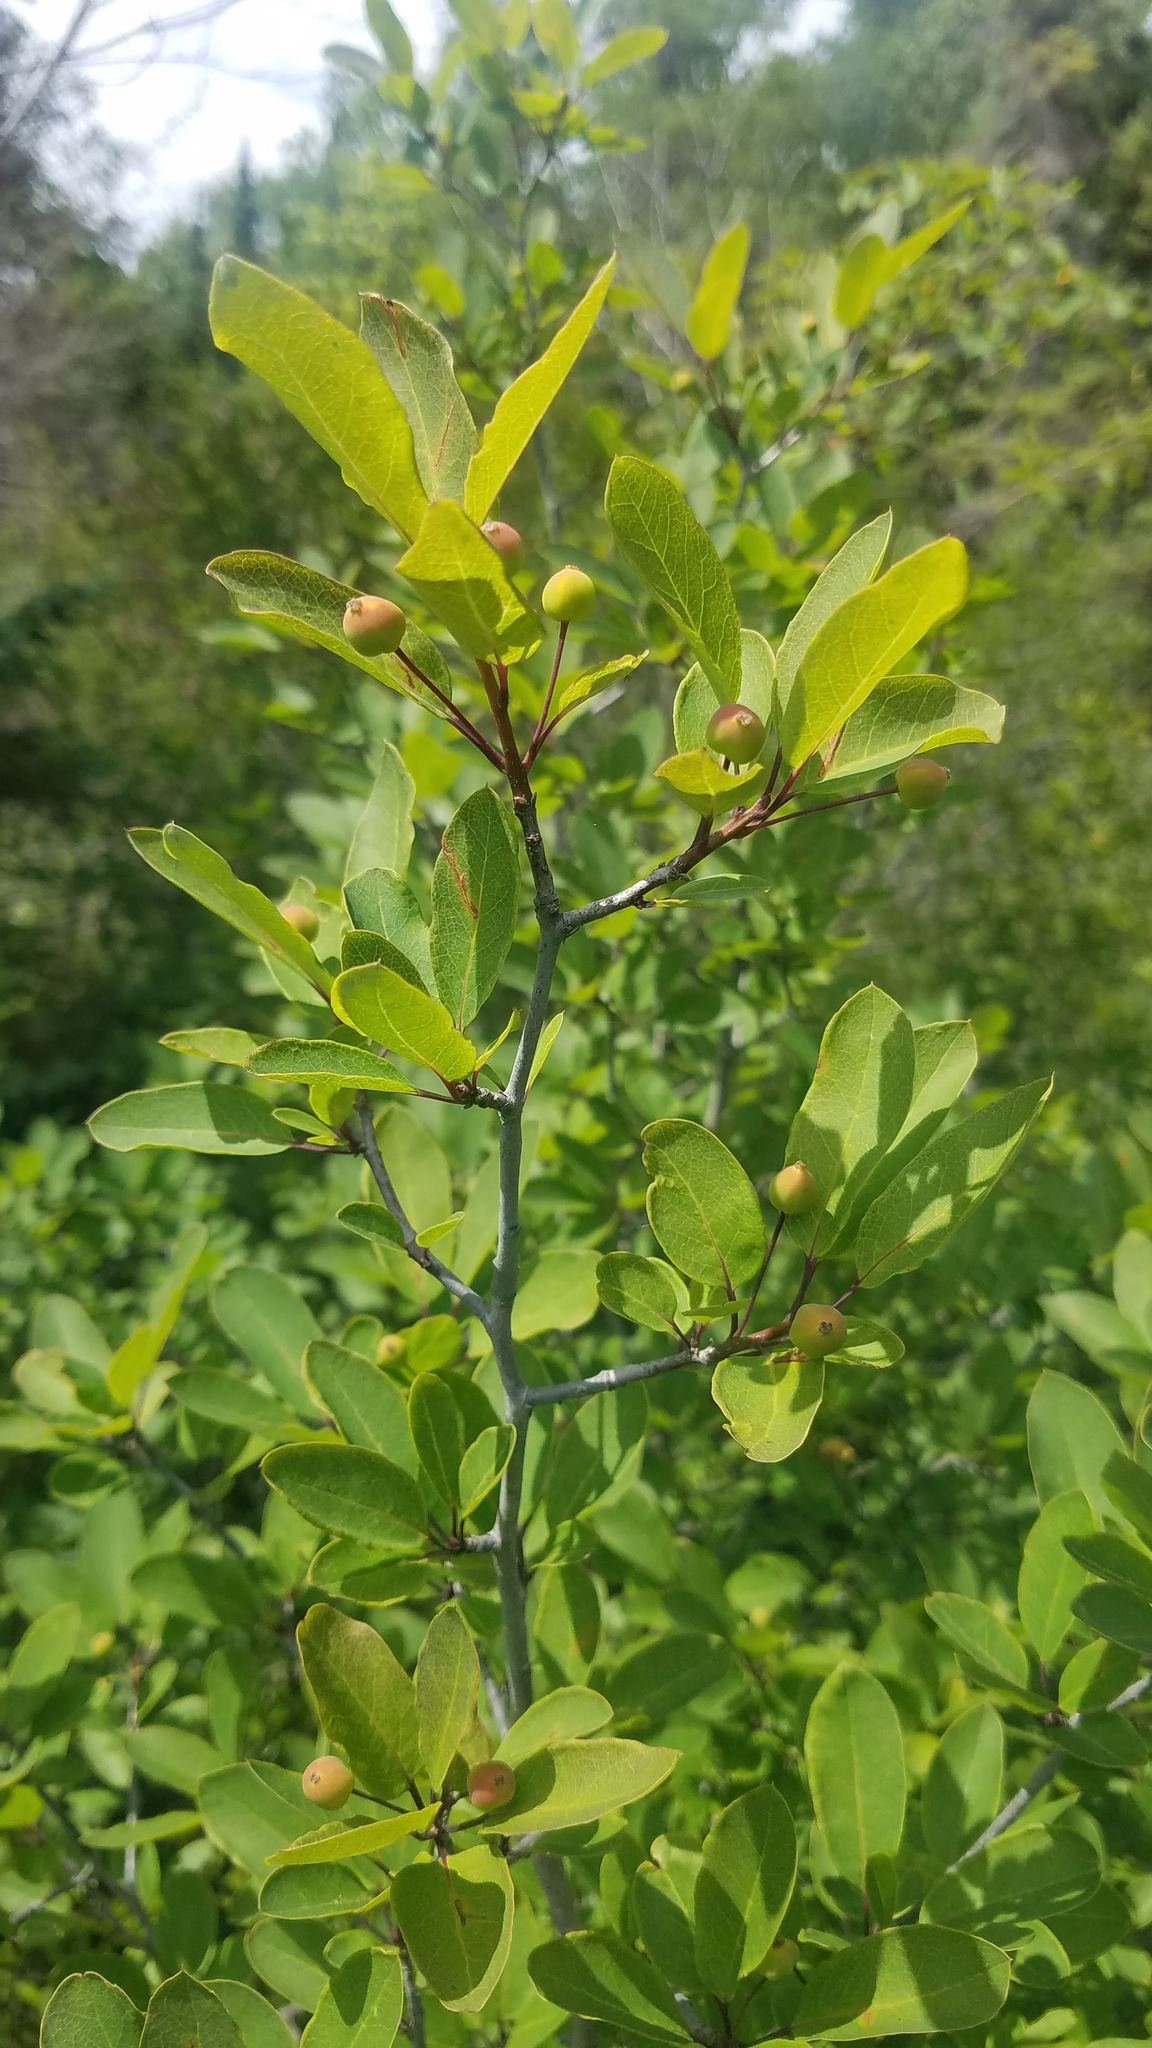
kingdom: Plantae
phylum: Tracheophyta
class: Magnoliopsida
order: Aquifoliales
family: Aquifoliaceae
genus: Ilex
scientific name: Ilex mucronata
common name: Catberry
